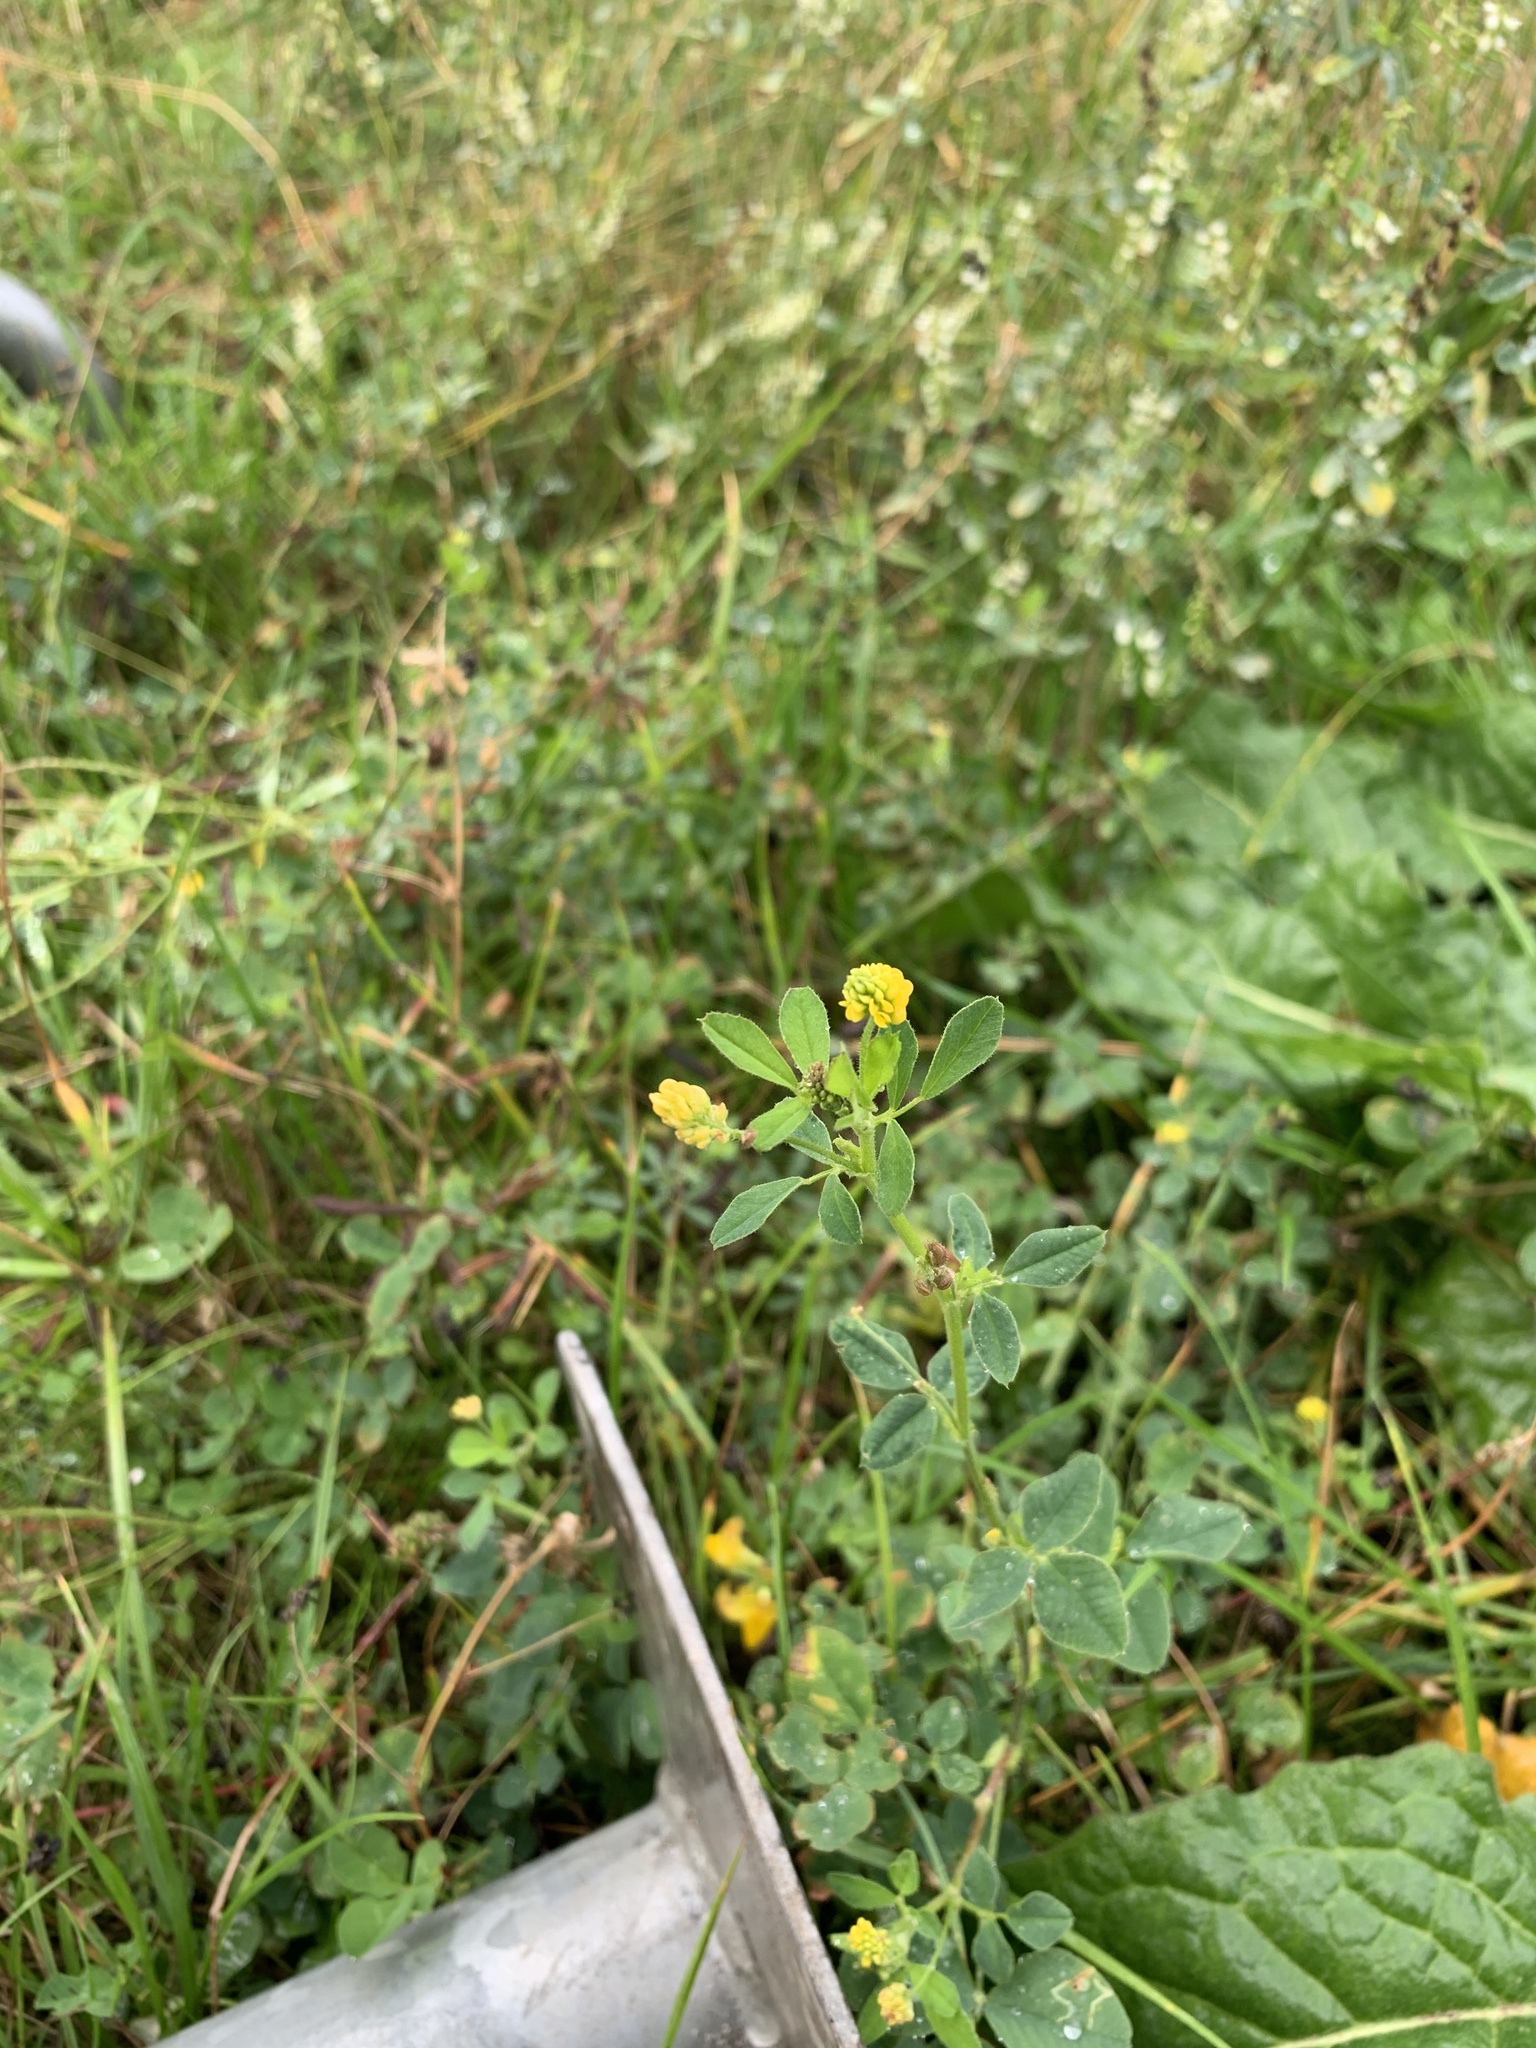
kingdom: Plantae
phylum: Tracheophyta
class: Magnoliopsida
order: Fabales
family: Fabaceae
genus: Medicago
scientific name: Medicago lupulina
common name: Black medick
